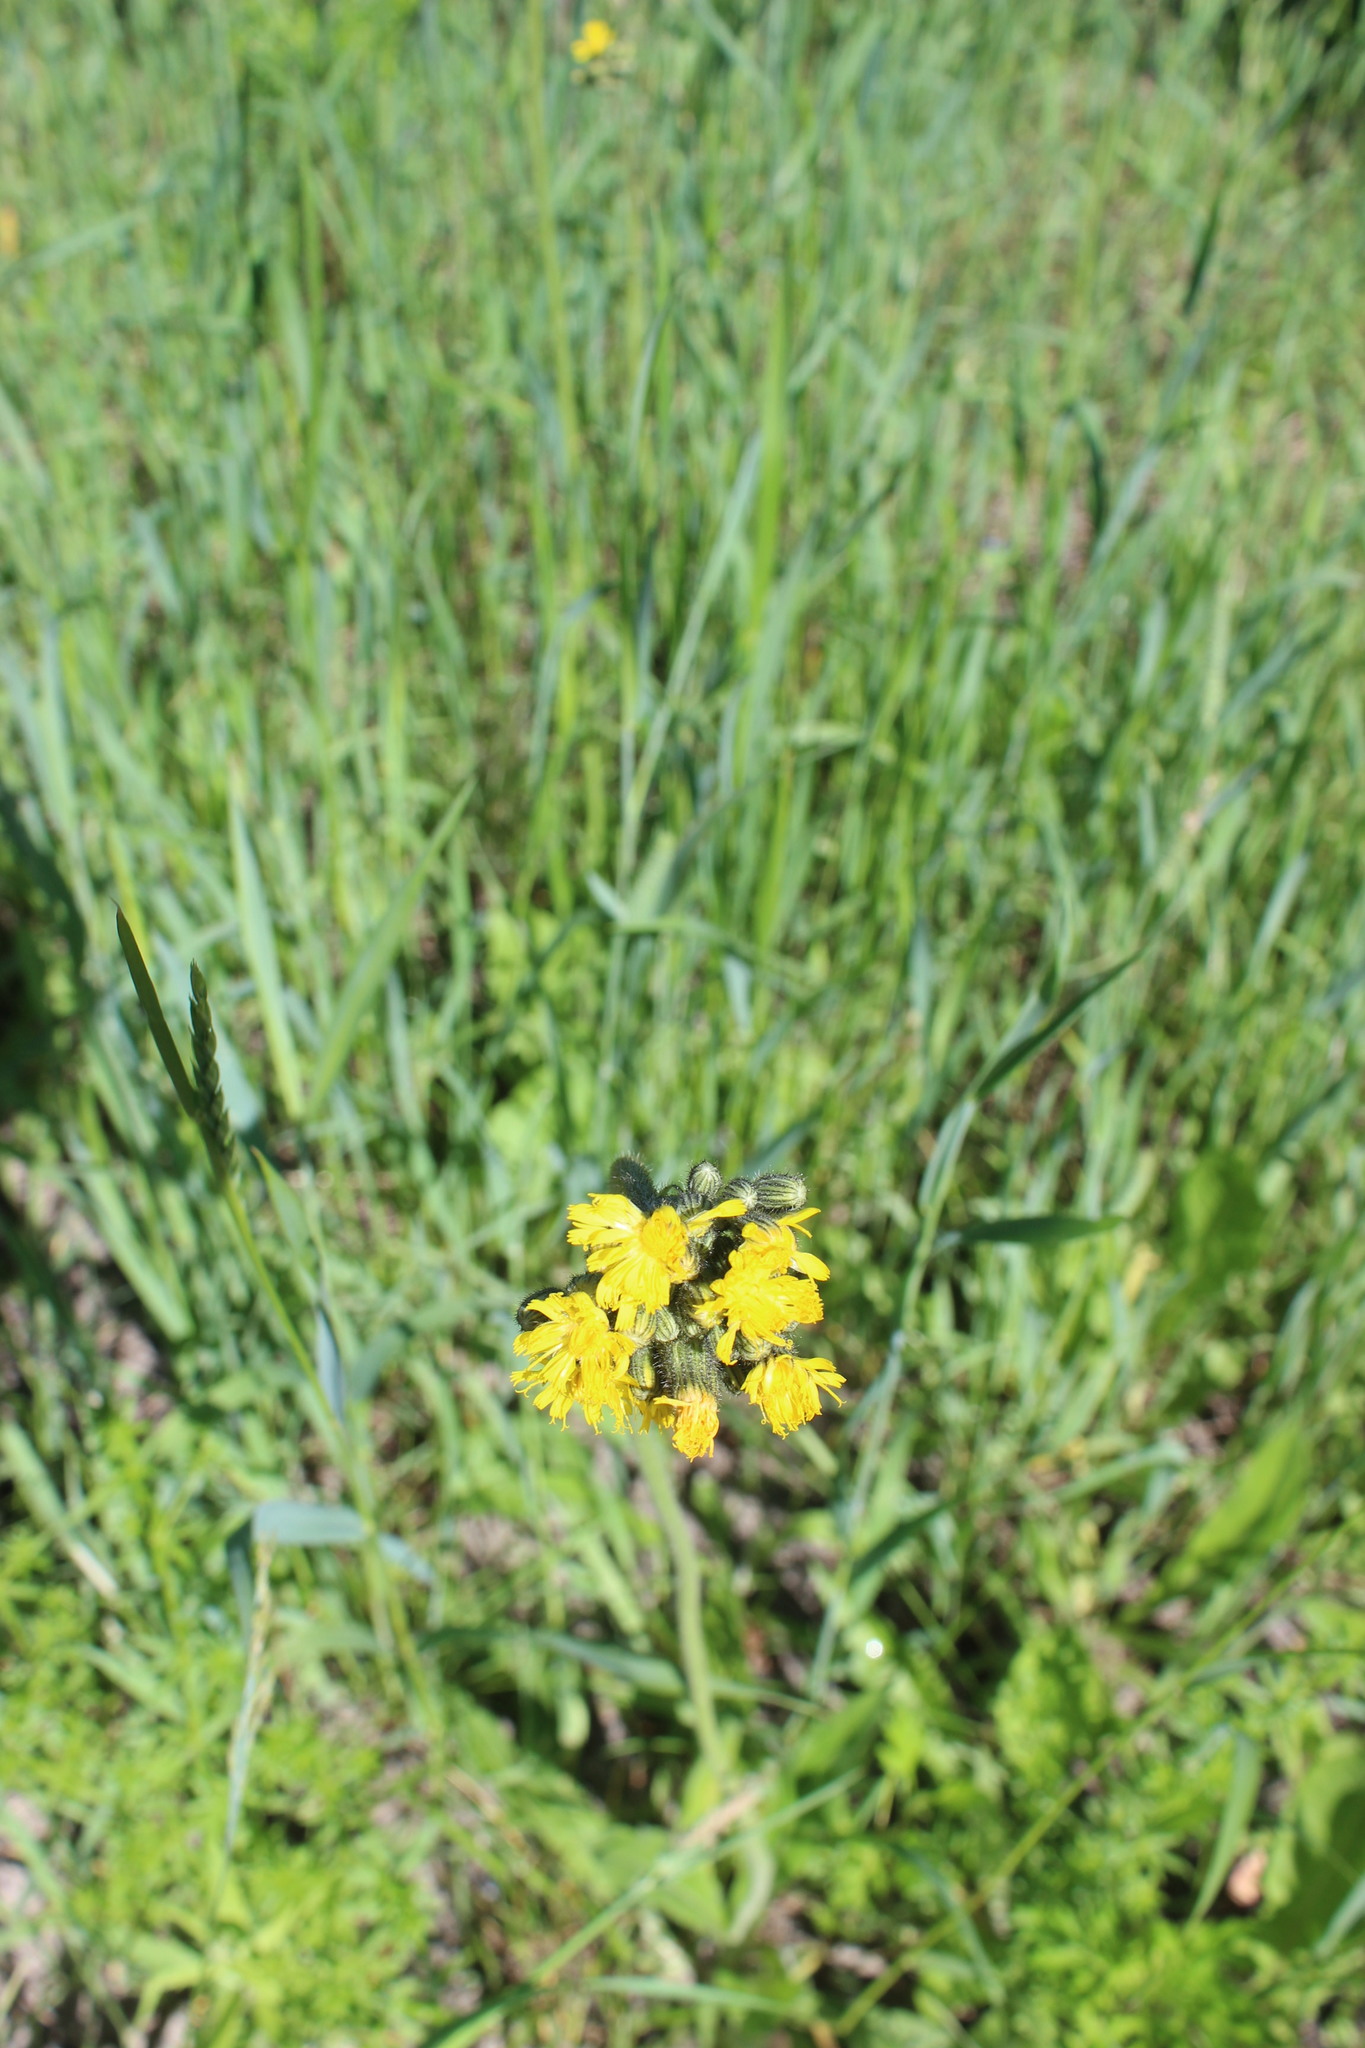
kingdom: Plantae
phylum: Tracheophyta
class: Magnoliopsida
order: Asterales
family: Asteraceae
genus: Pilosella
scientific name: Pilosella
